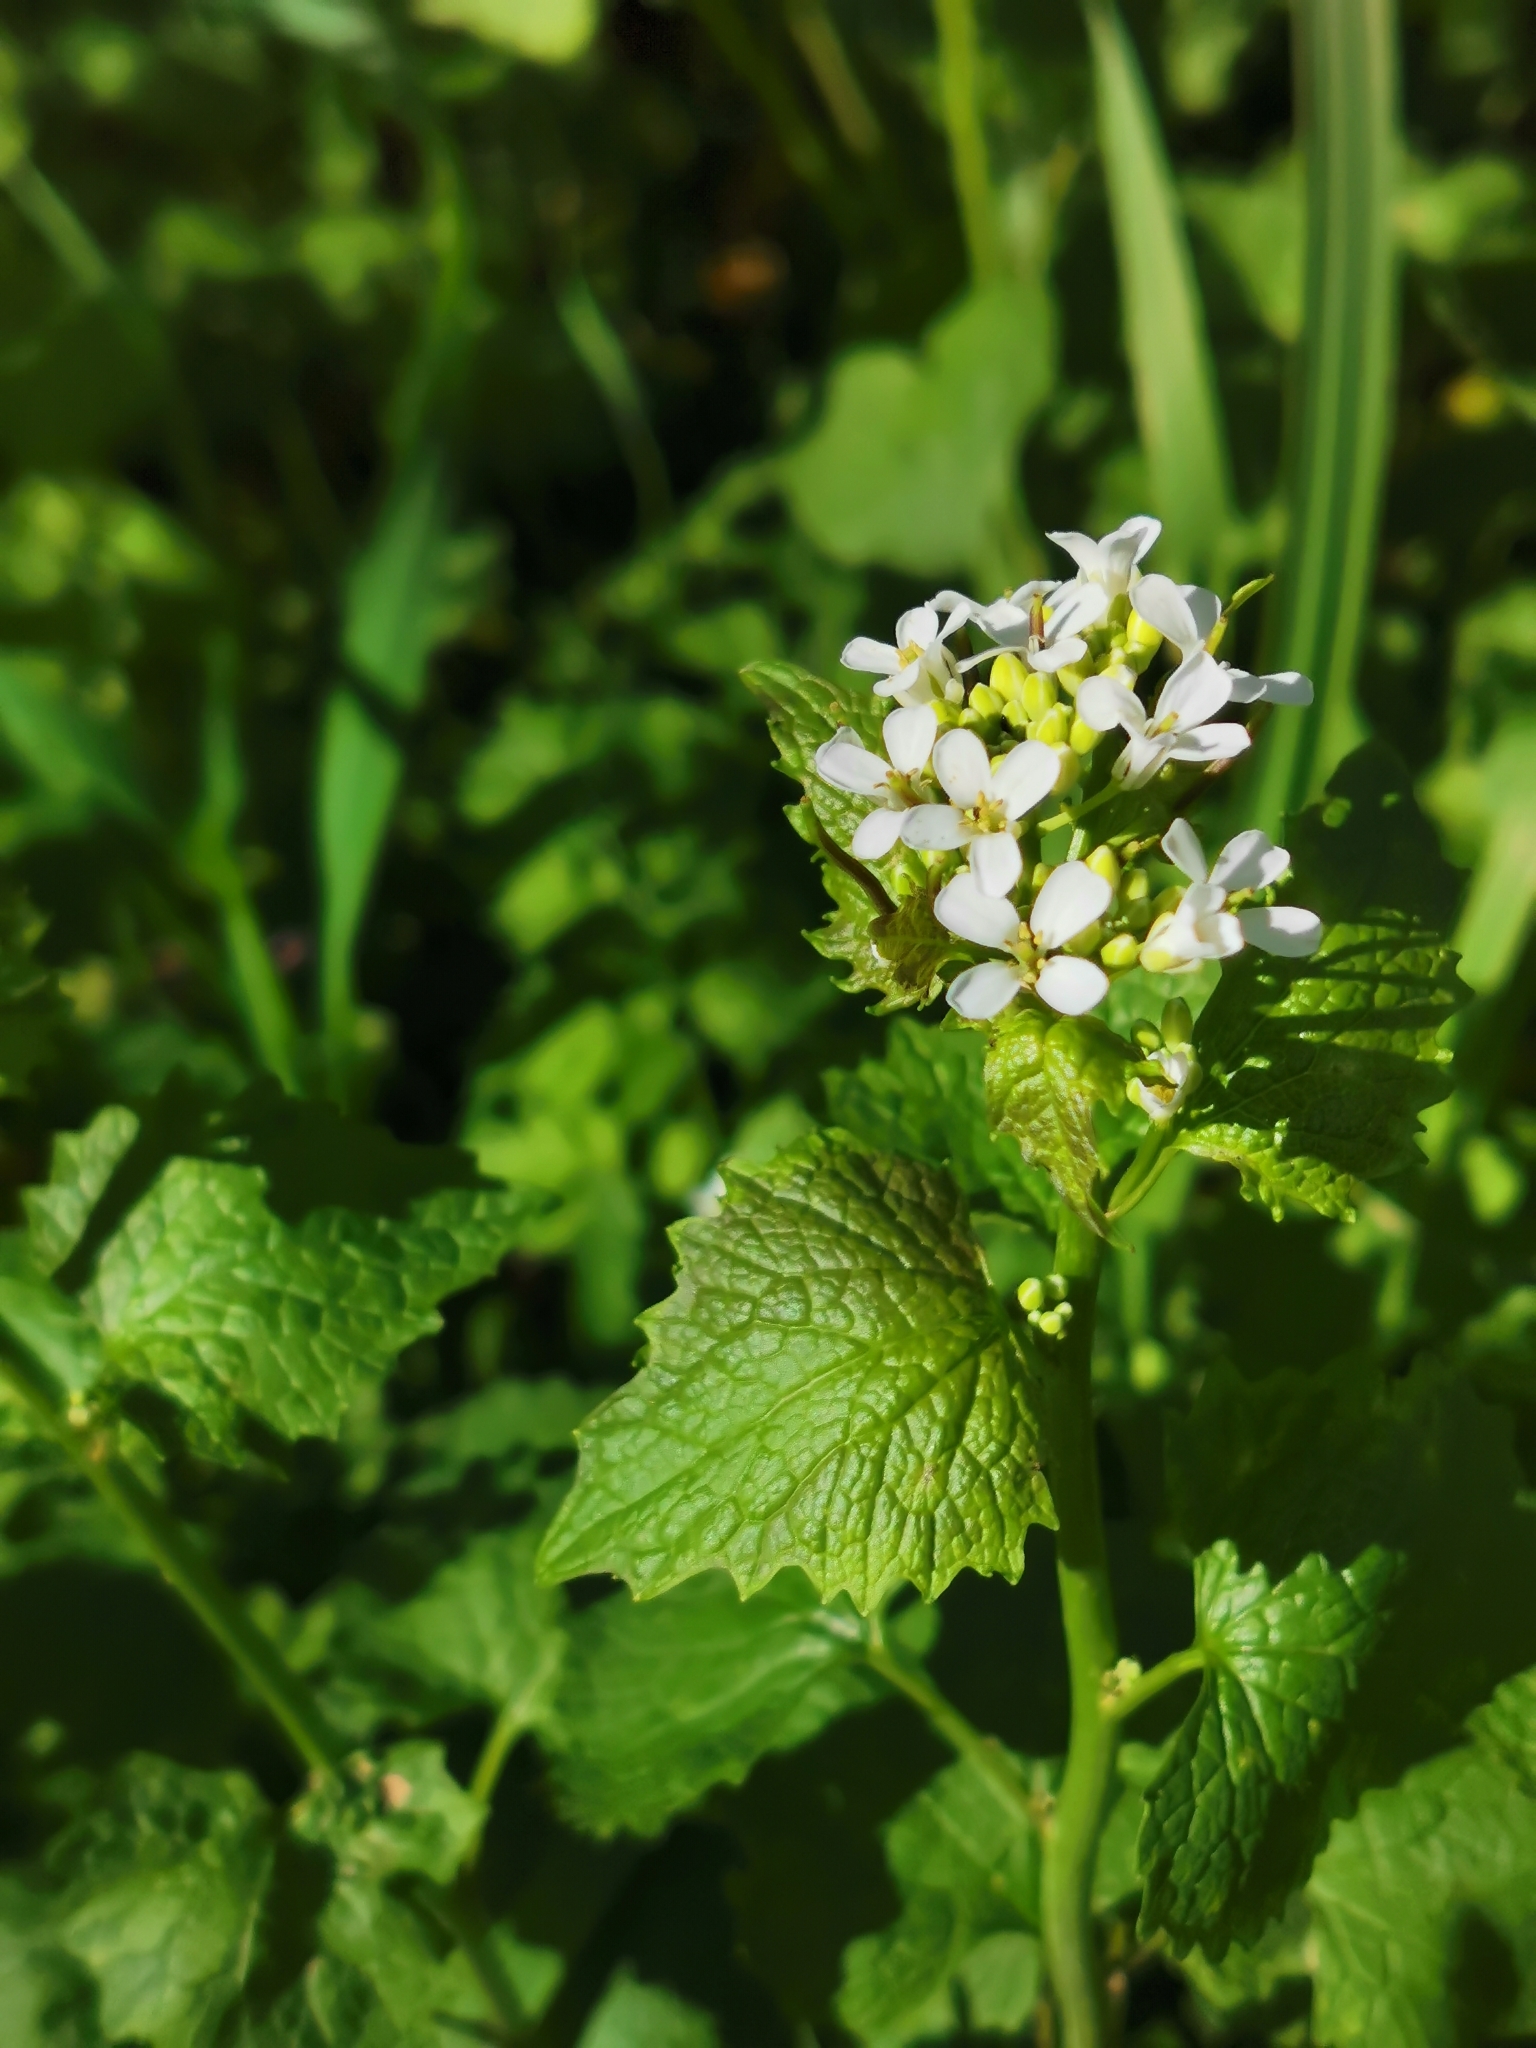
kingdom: Plantae
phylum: Tracheophyta
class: Magnoliopsida
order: Brassicales
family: Brassicaceae
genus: Alliaria
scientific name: Alliaria petiolata
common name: Garlic mustard
